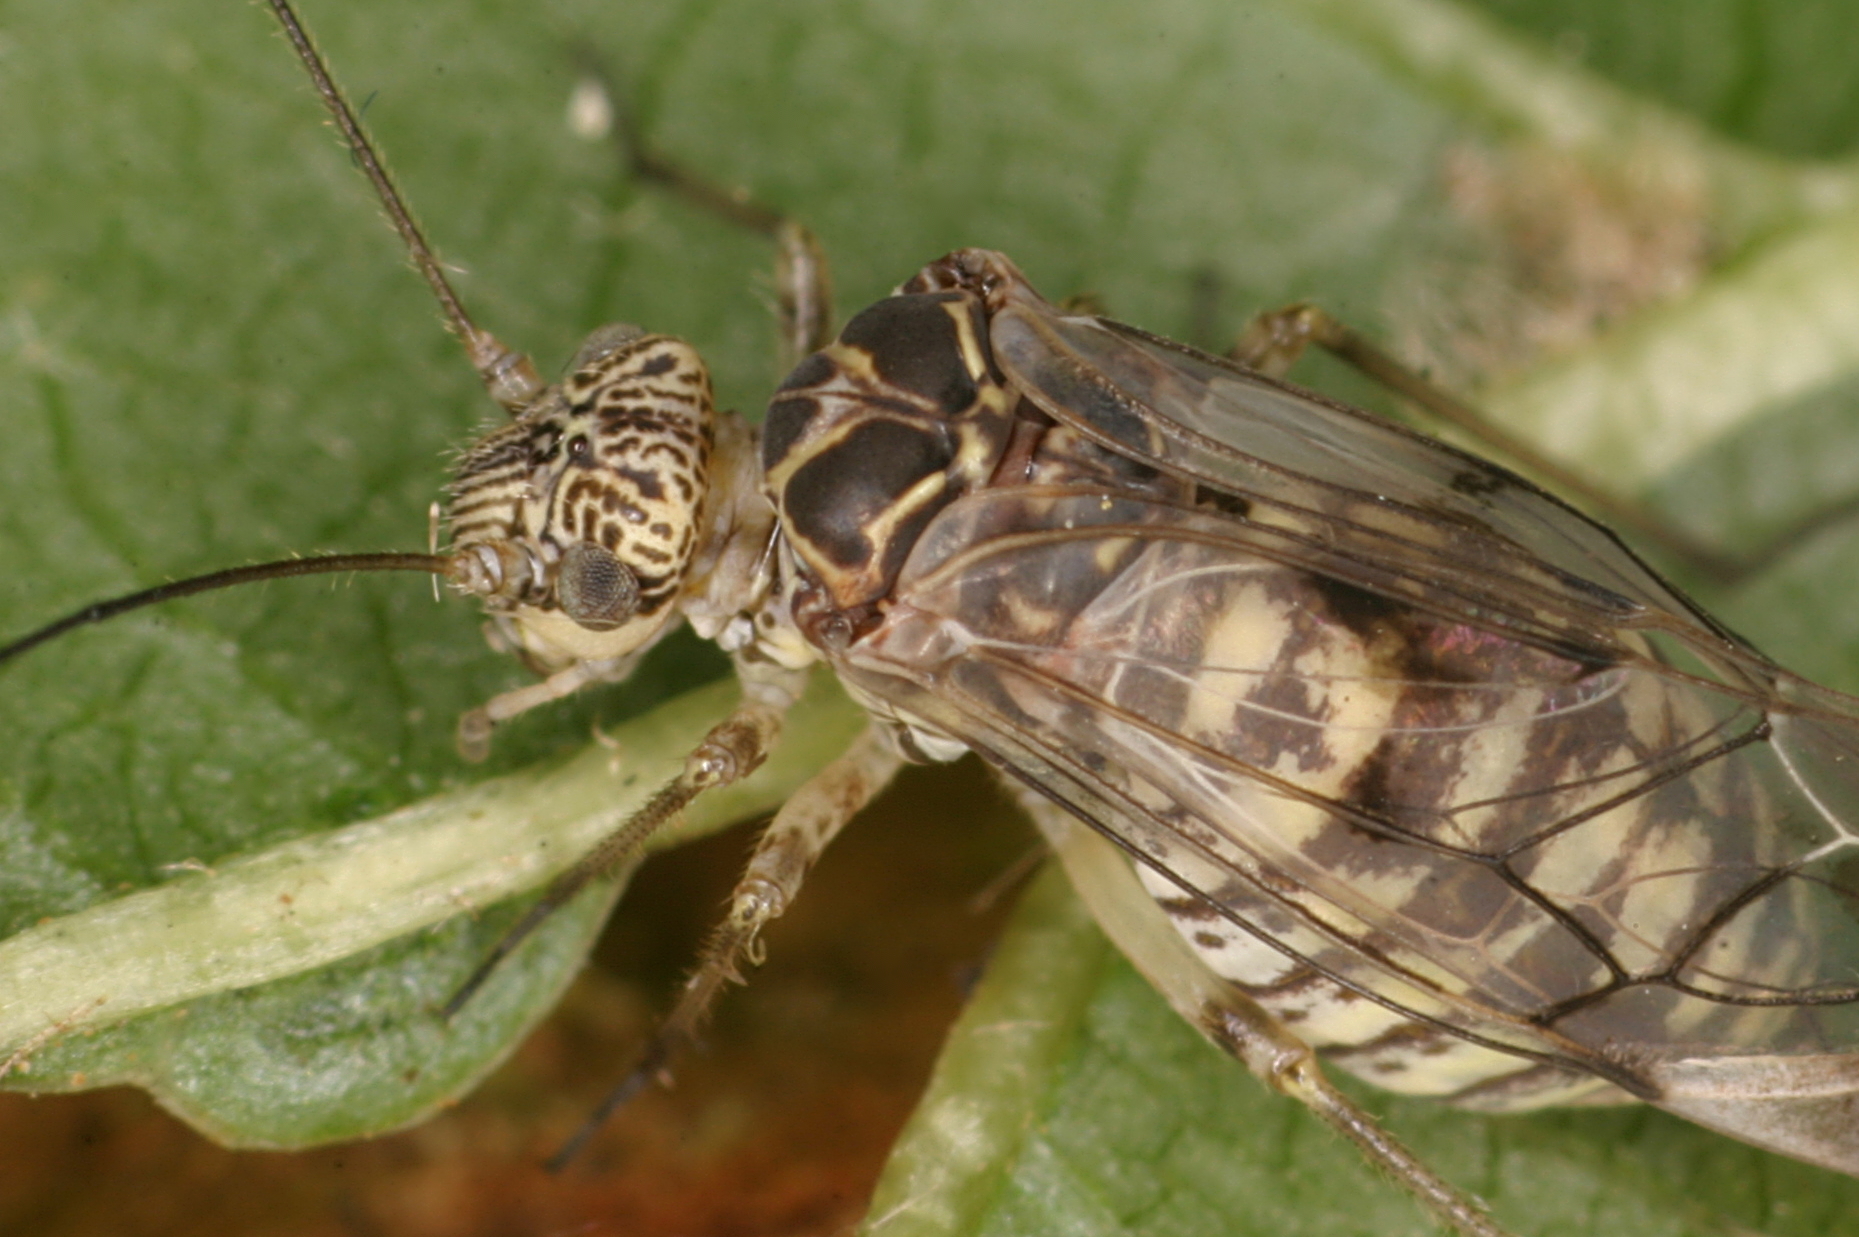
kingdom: Animalia
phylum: Arthropoda
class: Insecta
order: Psocodea
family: Psocidae
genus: Psococerastis
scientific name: Psococerastis gibbosa
